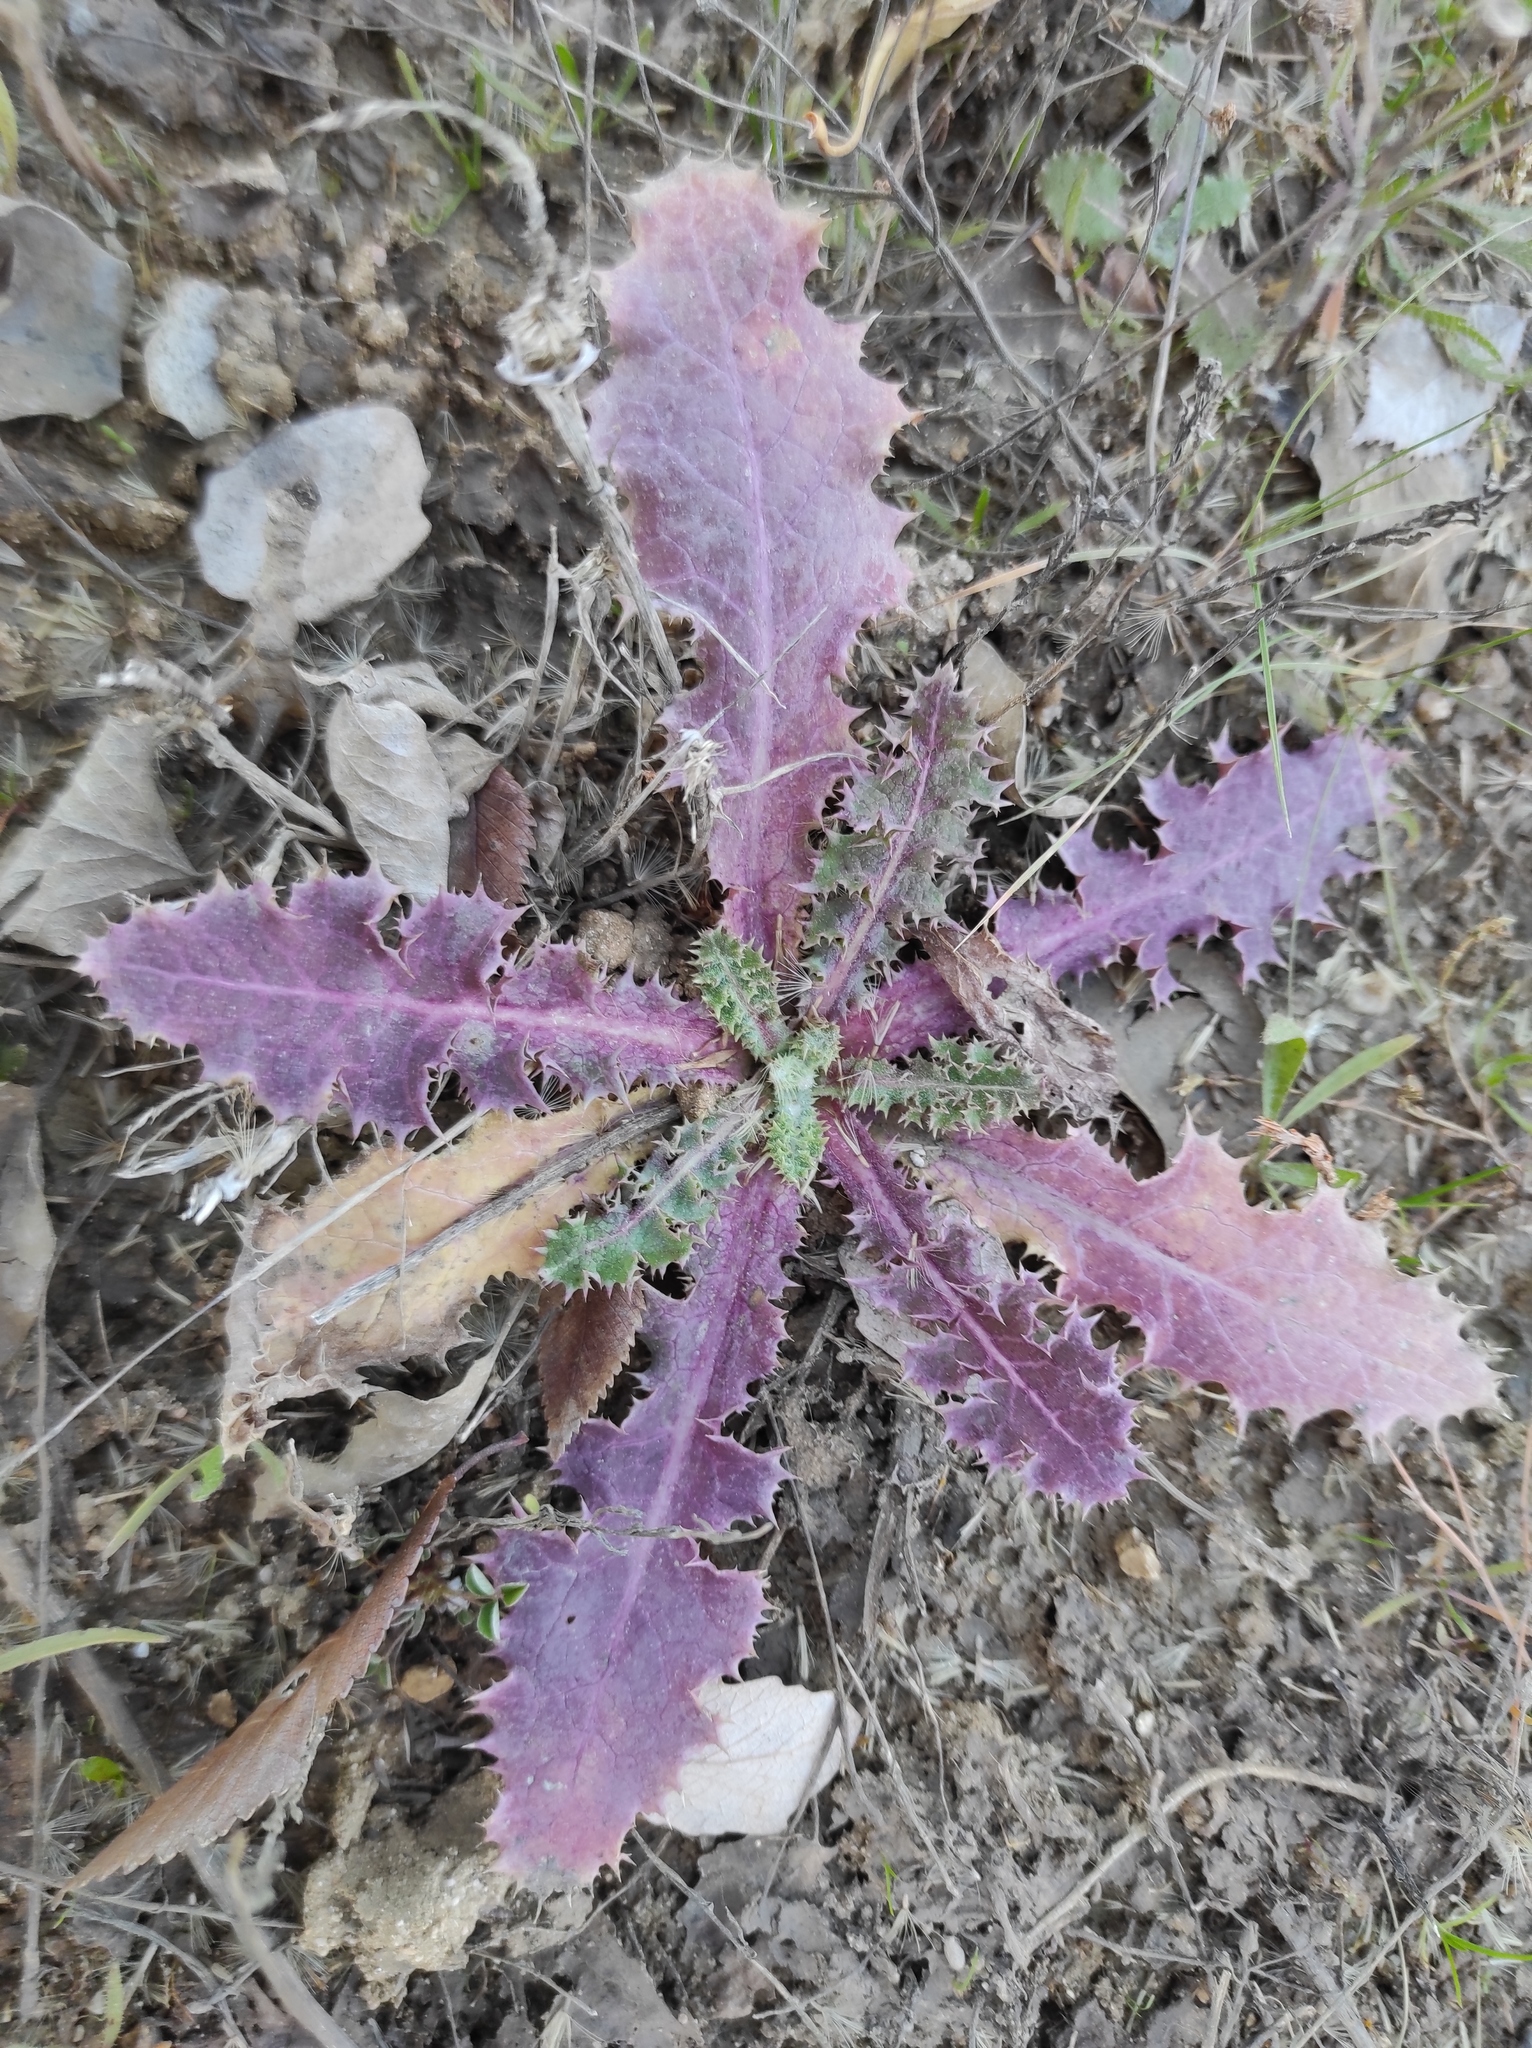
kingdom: Plantae
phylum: Tracheophyta
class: Magnoliopsida
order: Asterales
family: Asteraceae
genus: Sonchus
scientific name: Sonchus asper
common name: Prickly sow-thistle
